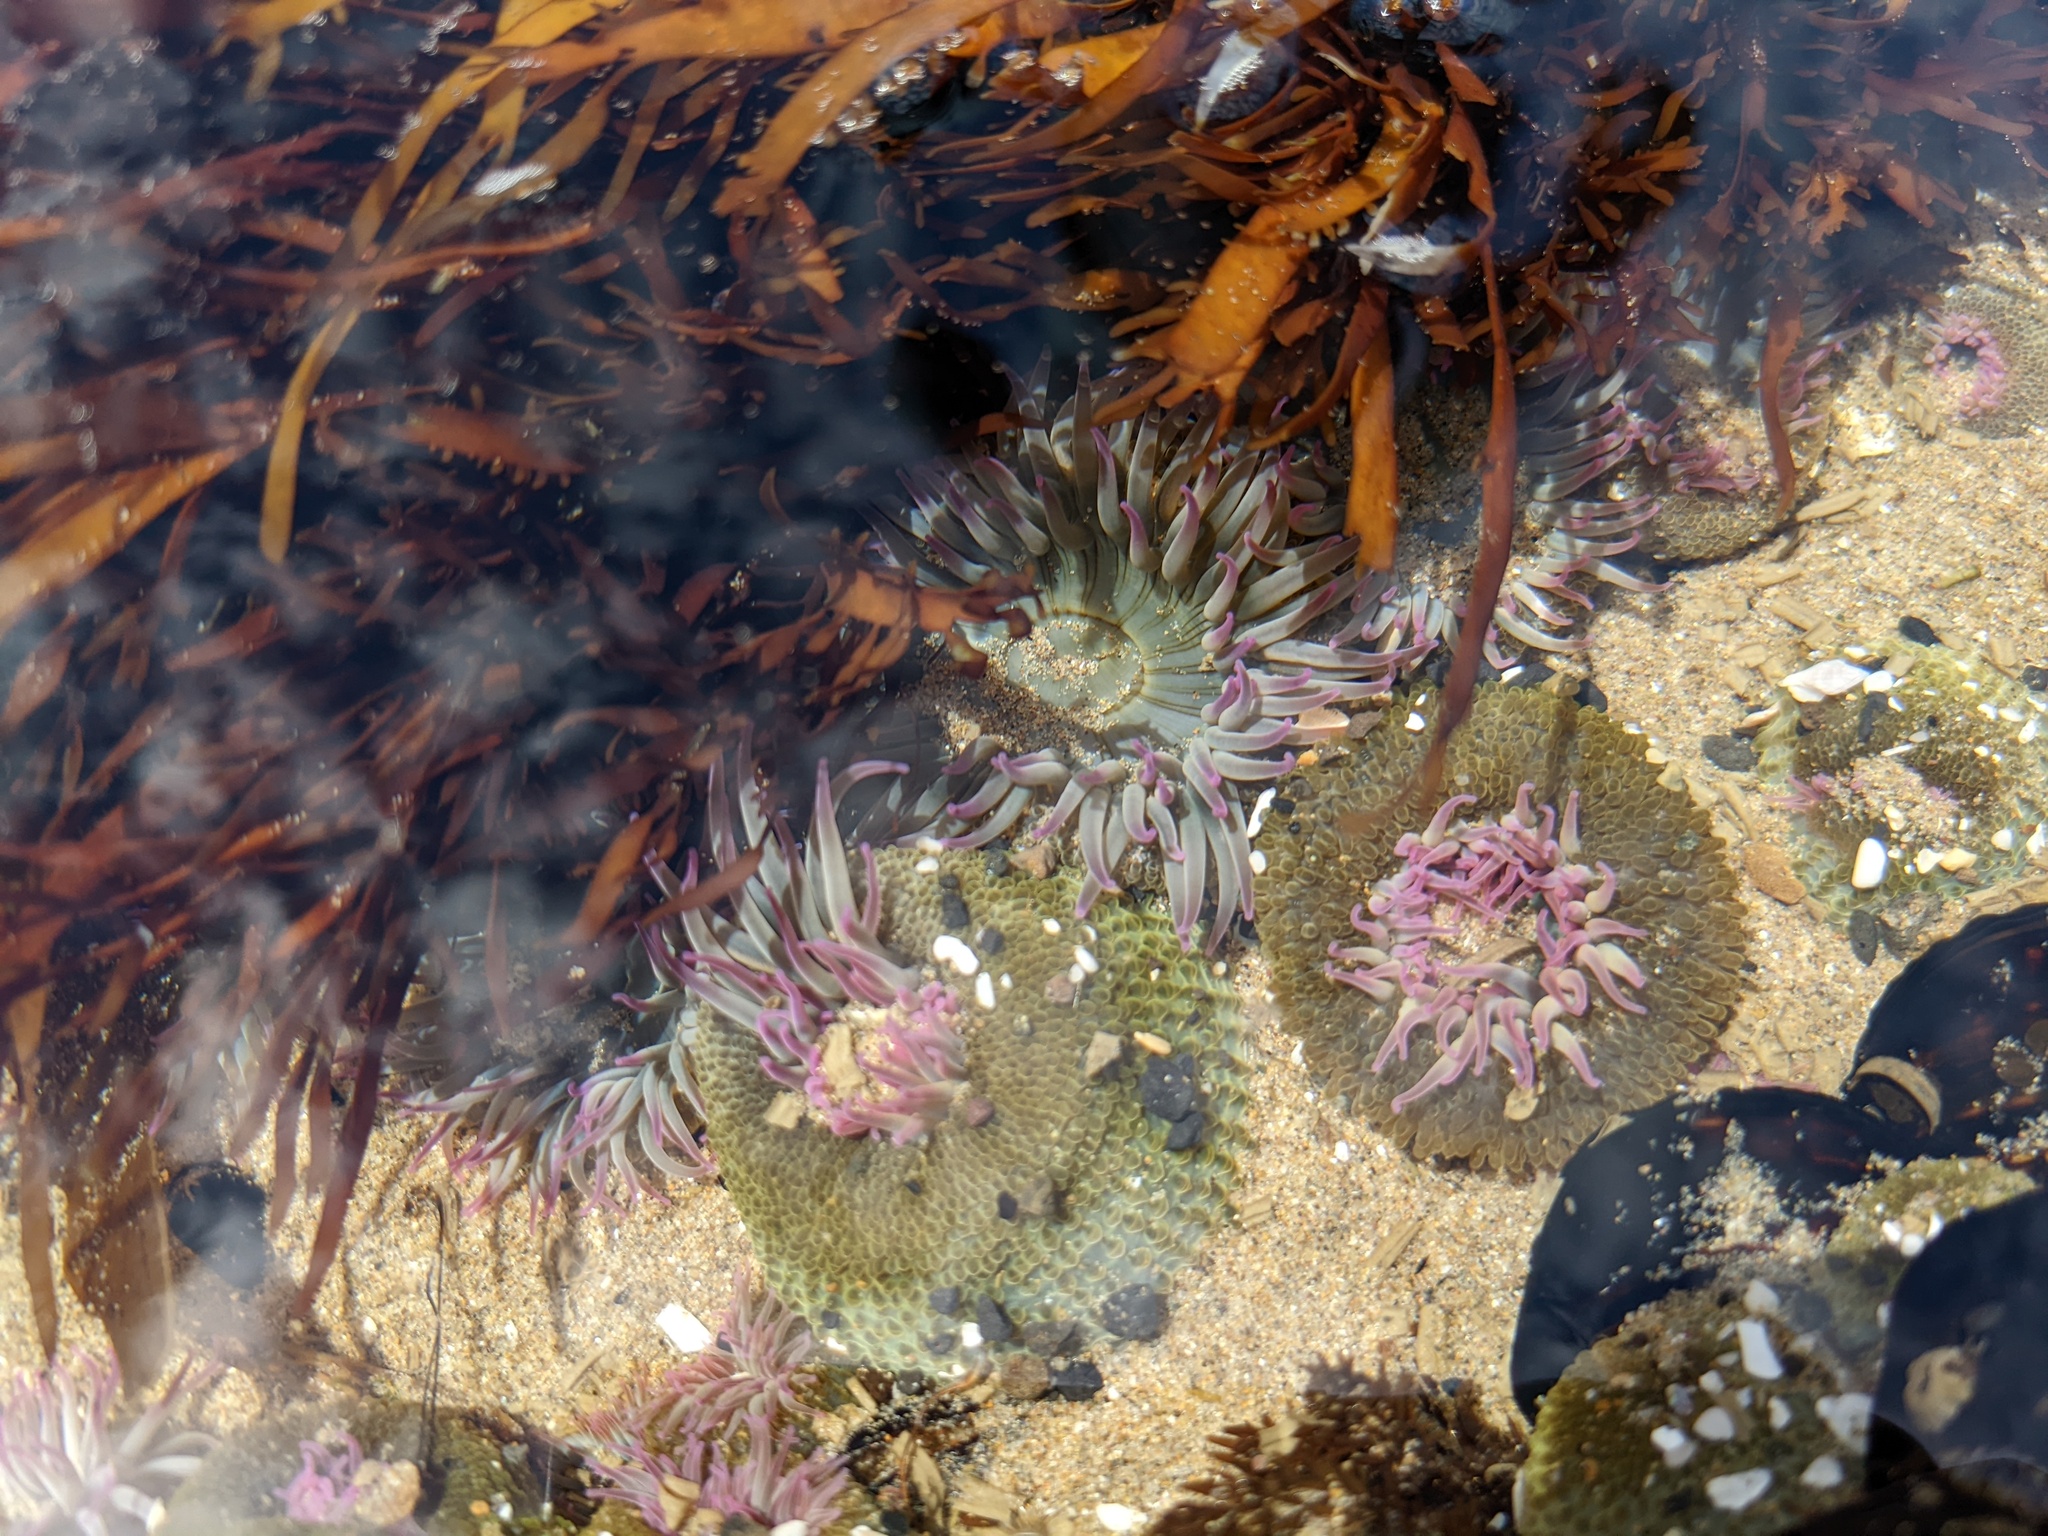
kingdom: Animalia
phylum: Cnidaria
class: Anthozoa
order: Actiniaria
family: Actiniidae
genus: Anthopleura
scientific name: Anthopleura elegantissima
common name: Clonal anemone
